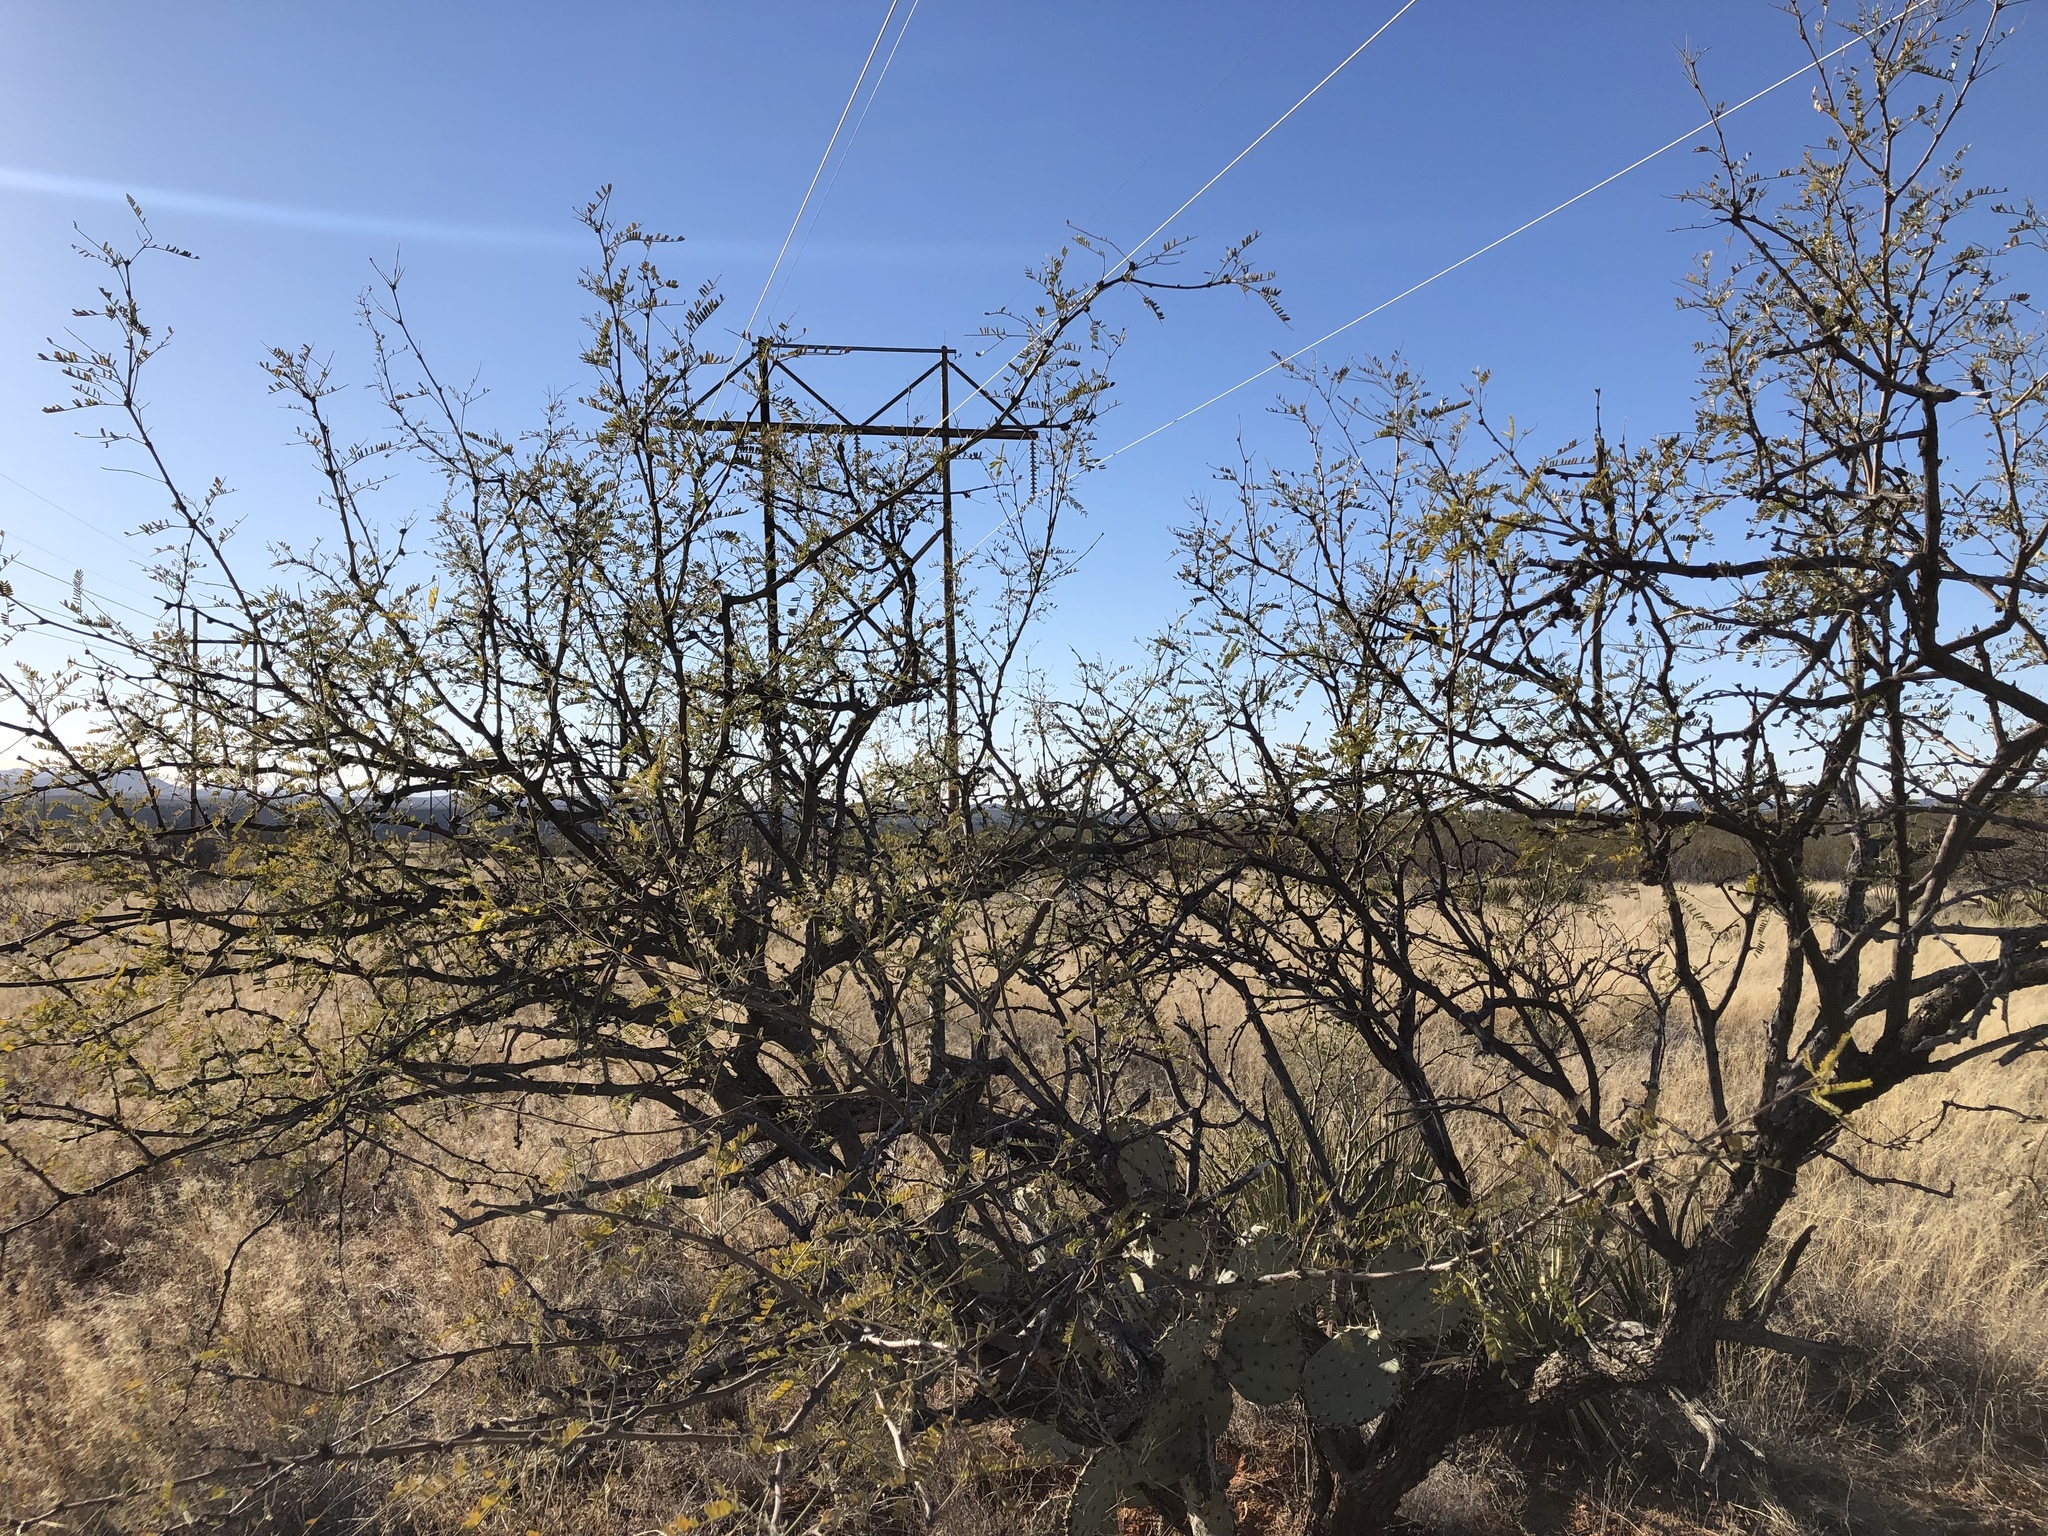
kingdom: Plantae
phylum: Tracheophyta
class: Magnoliopsida
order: Fabales
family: Fabaceae
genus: Prosopis
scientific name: Prosopis velutina
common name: Velvet mesquite
